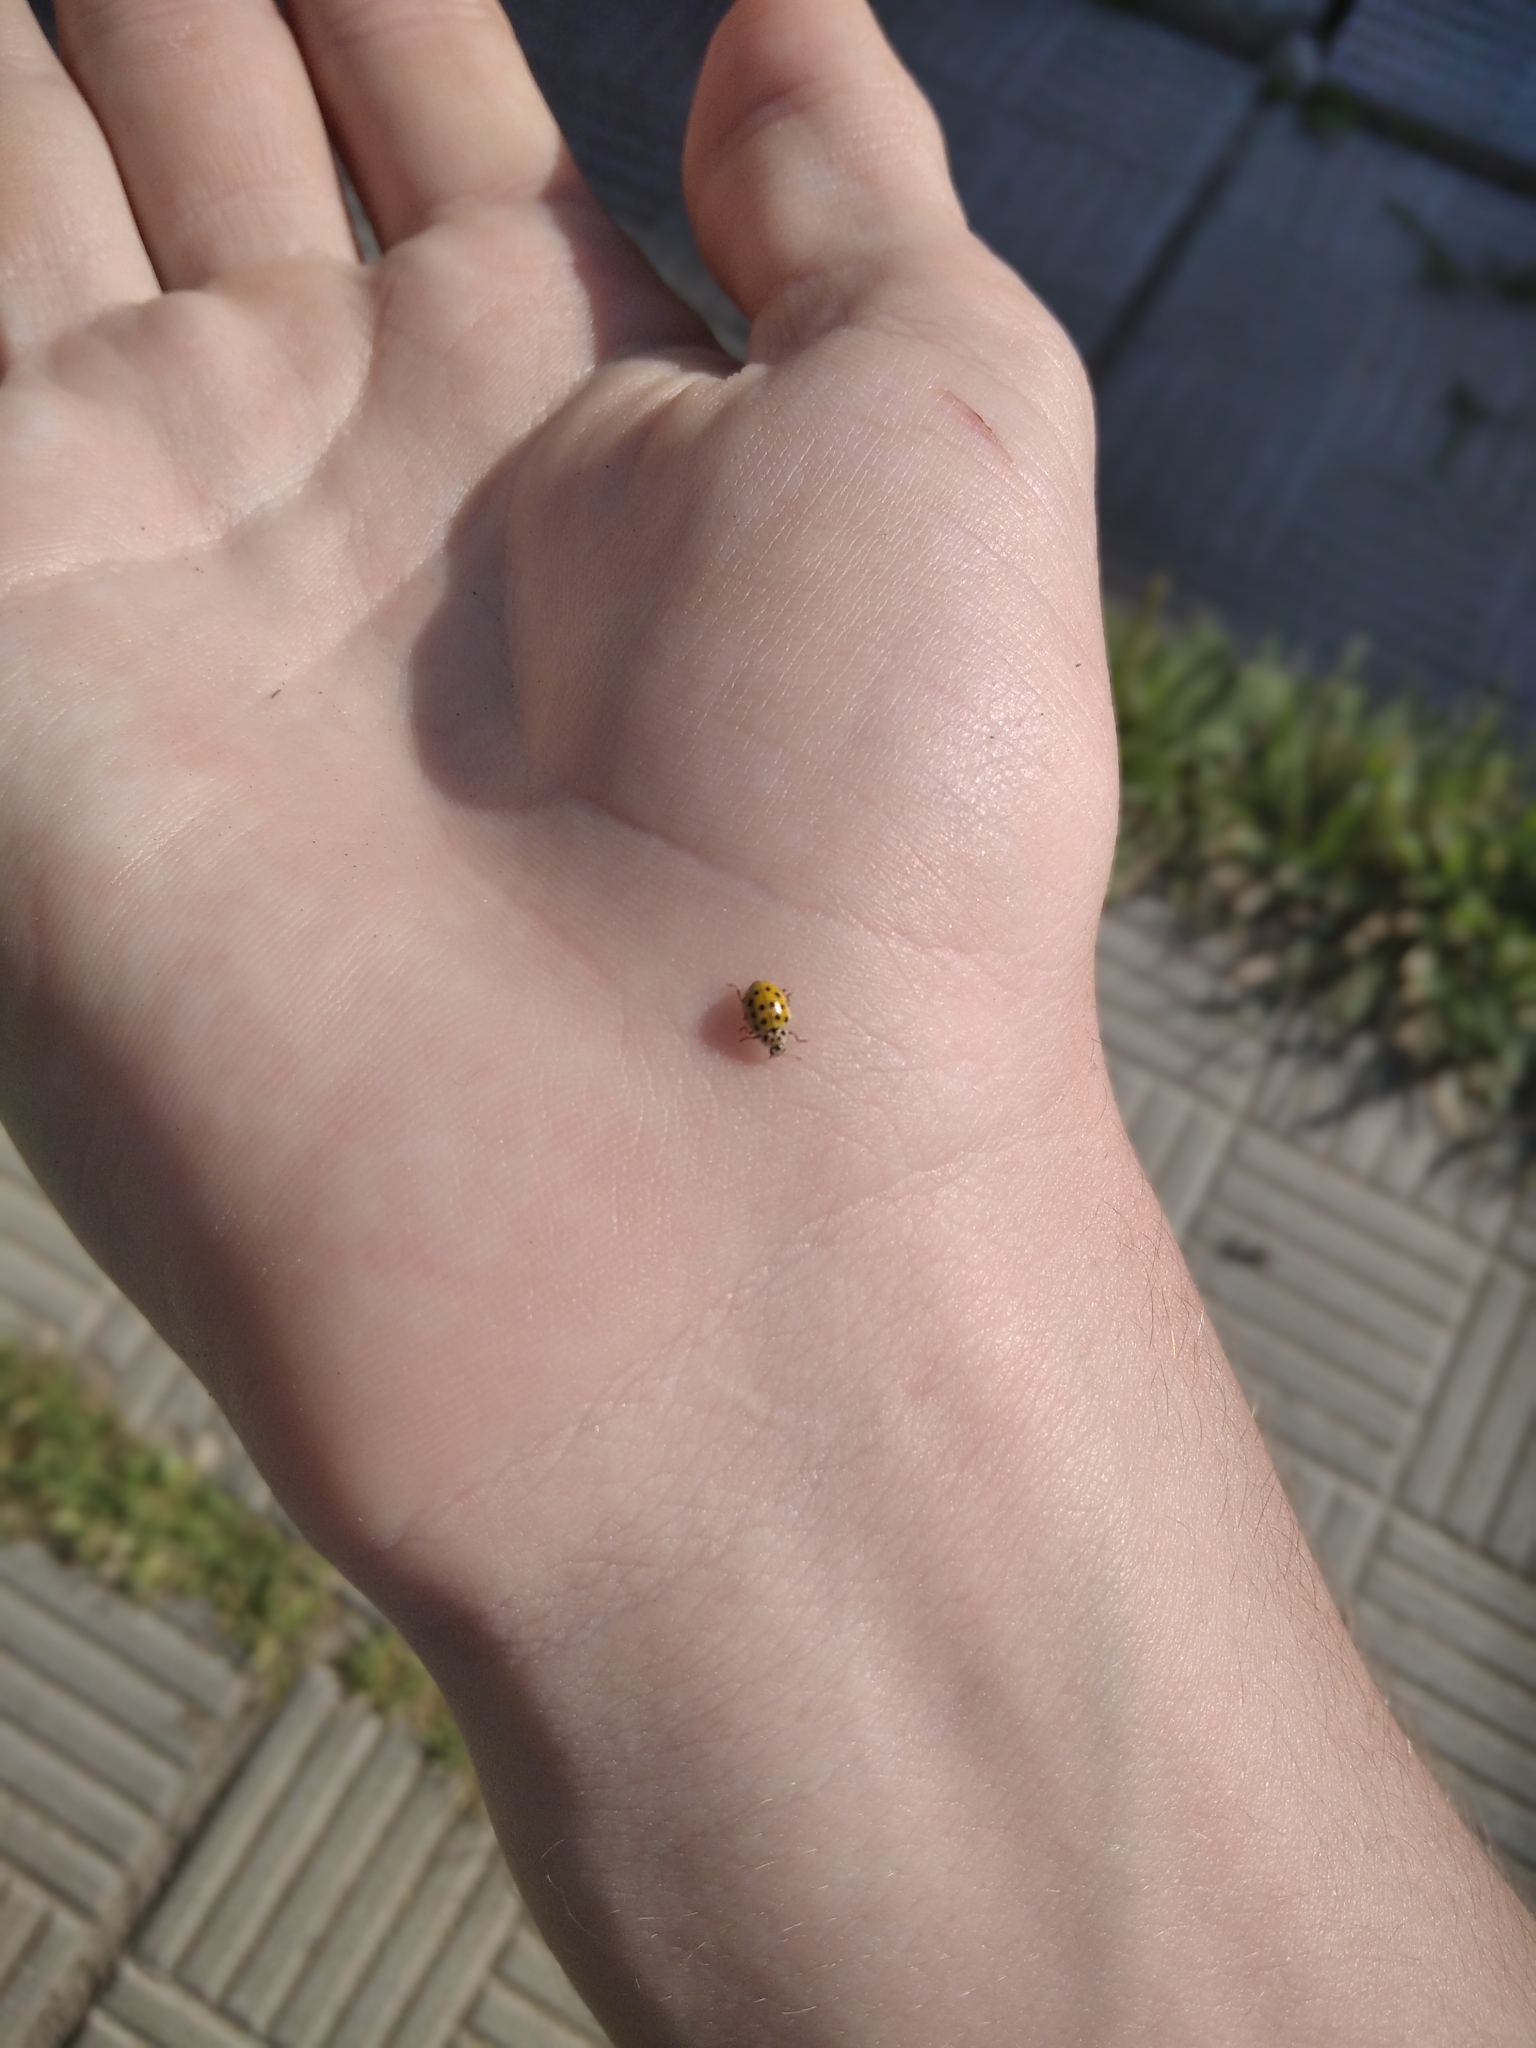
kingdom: Animalia
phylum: Arthropoda
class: Insecta
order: Coleoptera
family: Coccinellidae
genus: Psyllobora
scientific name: Psyllobora vigintiduopunctata
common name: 22-spot ladybird
